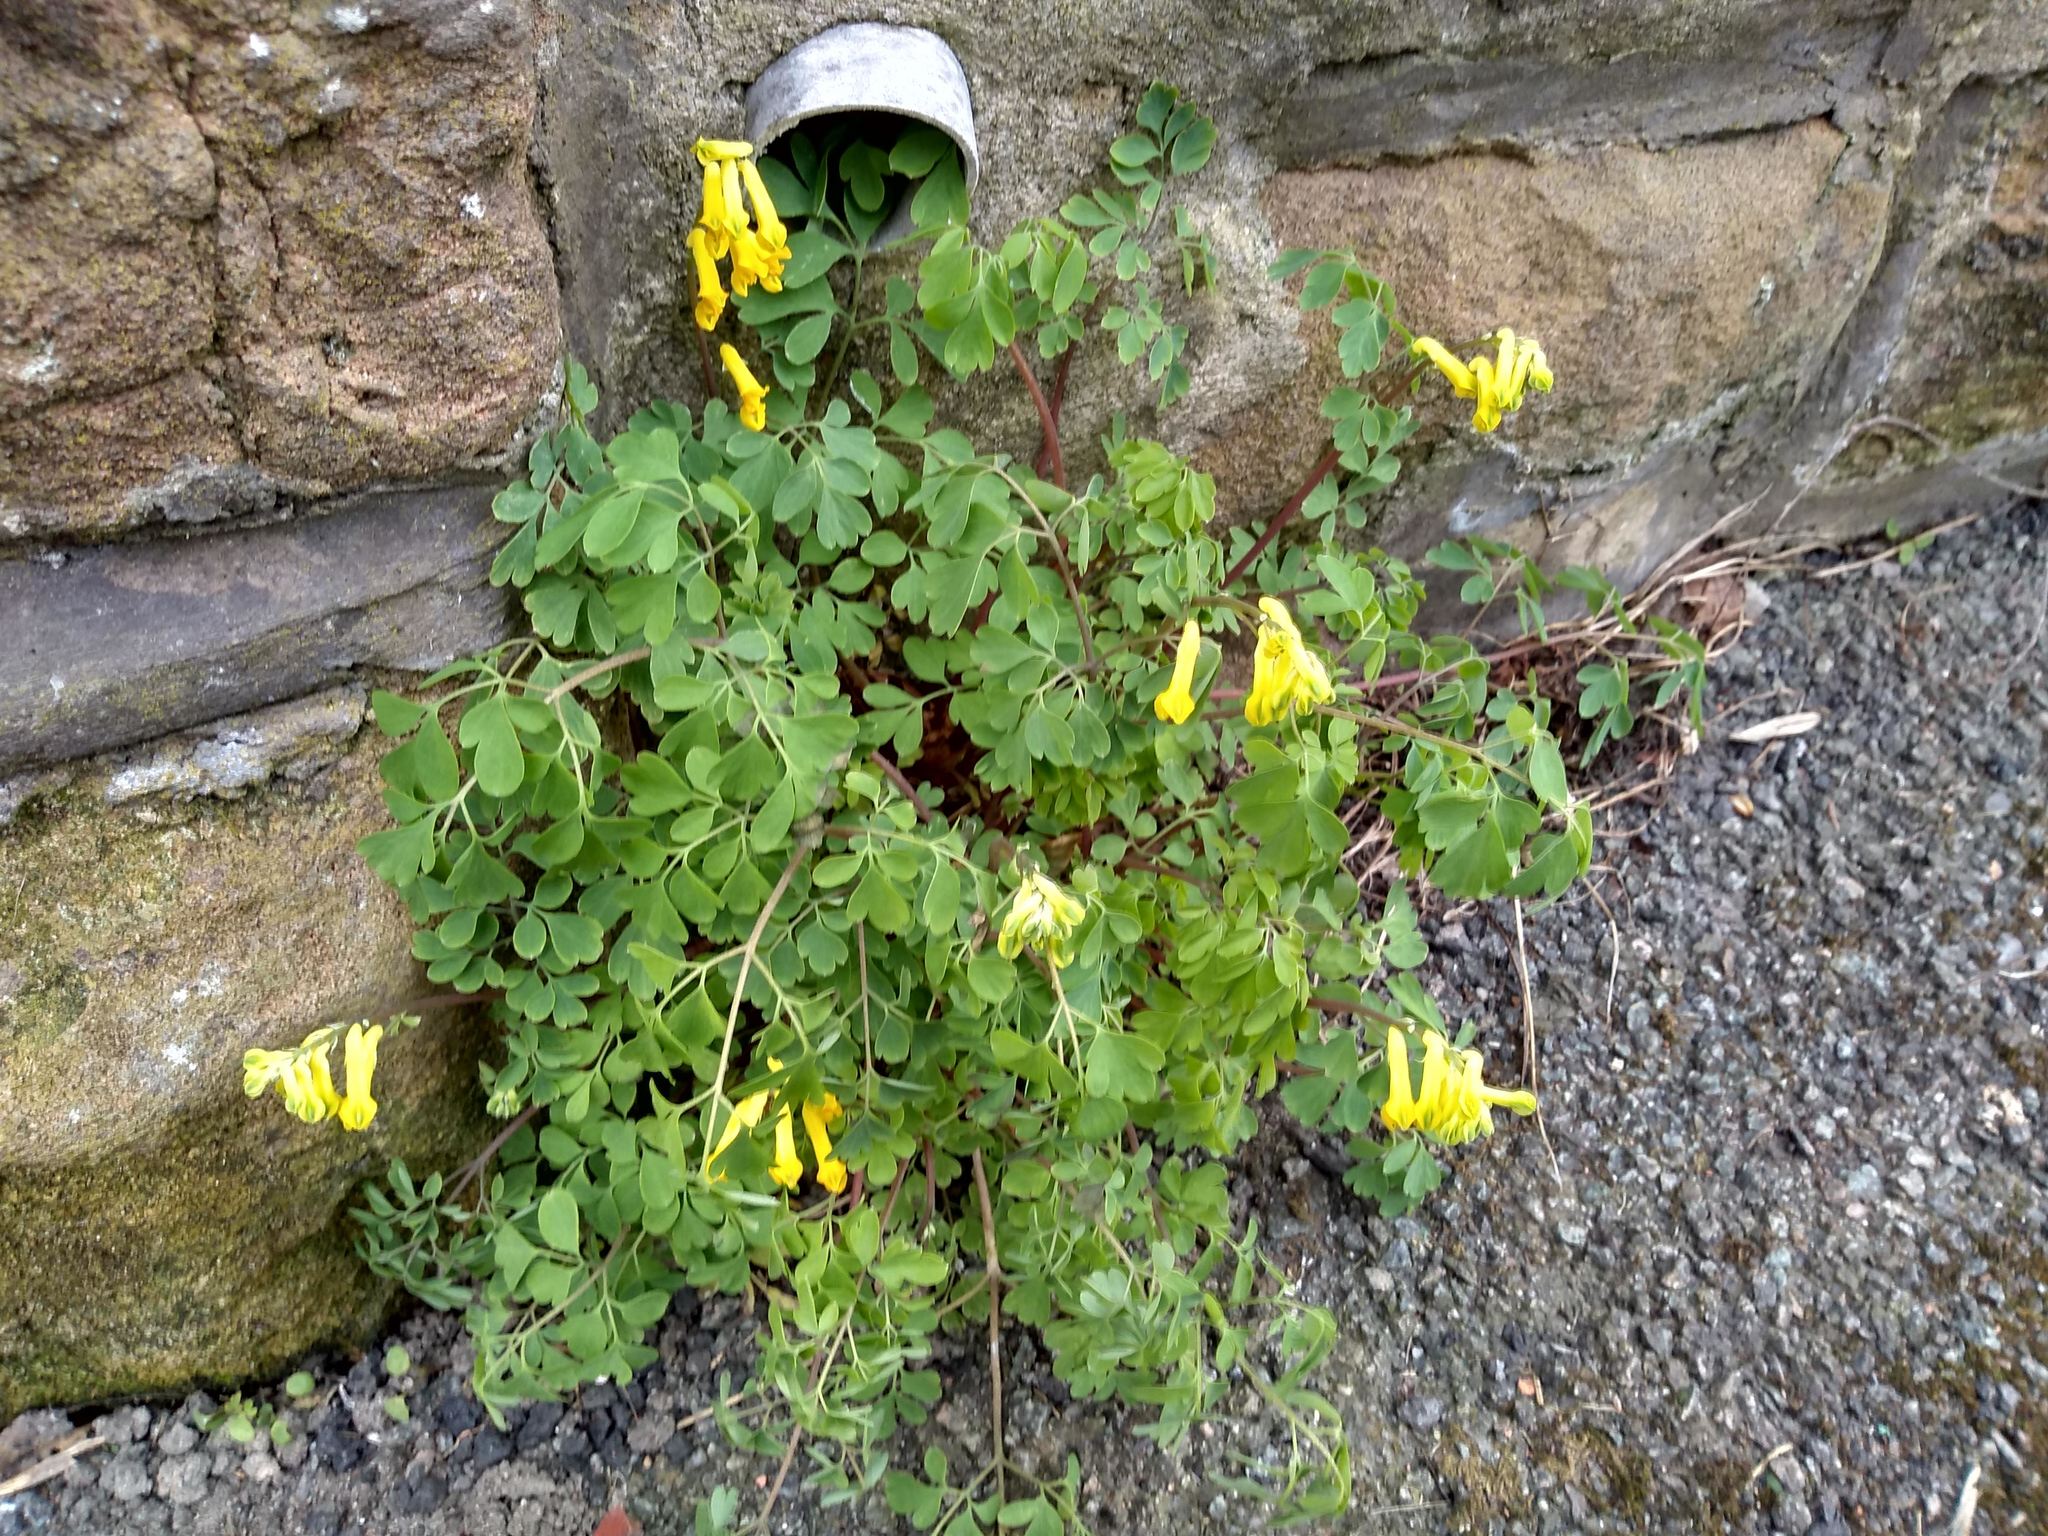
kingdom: Plantae
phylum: Tracheophyta
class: Magnoliopsida
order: Ranunculales
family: Papaveraceae
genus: Pseudofumaria
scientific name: Pseudofumaria lutea
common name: Yellow corydalis
